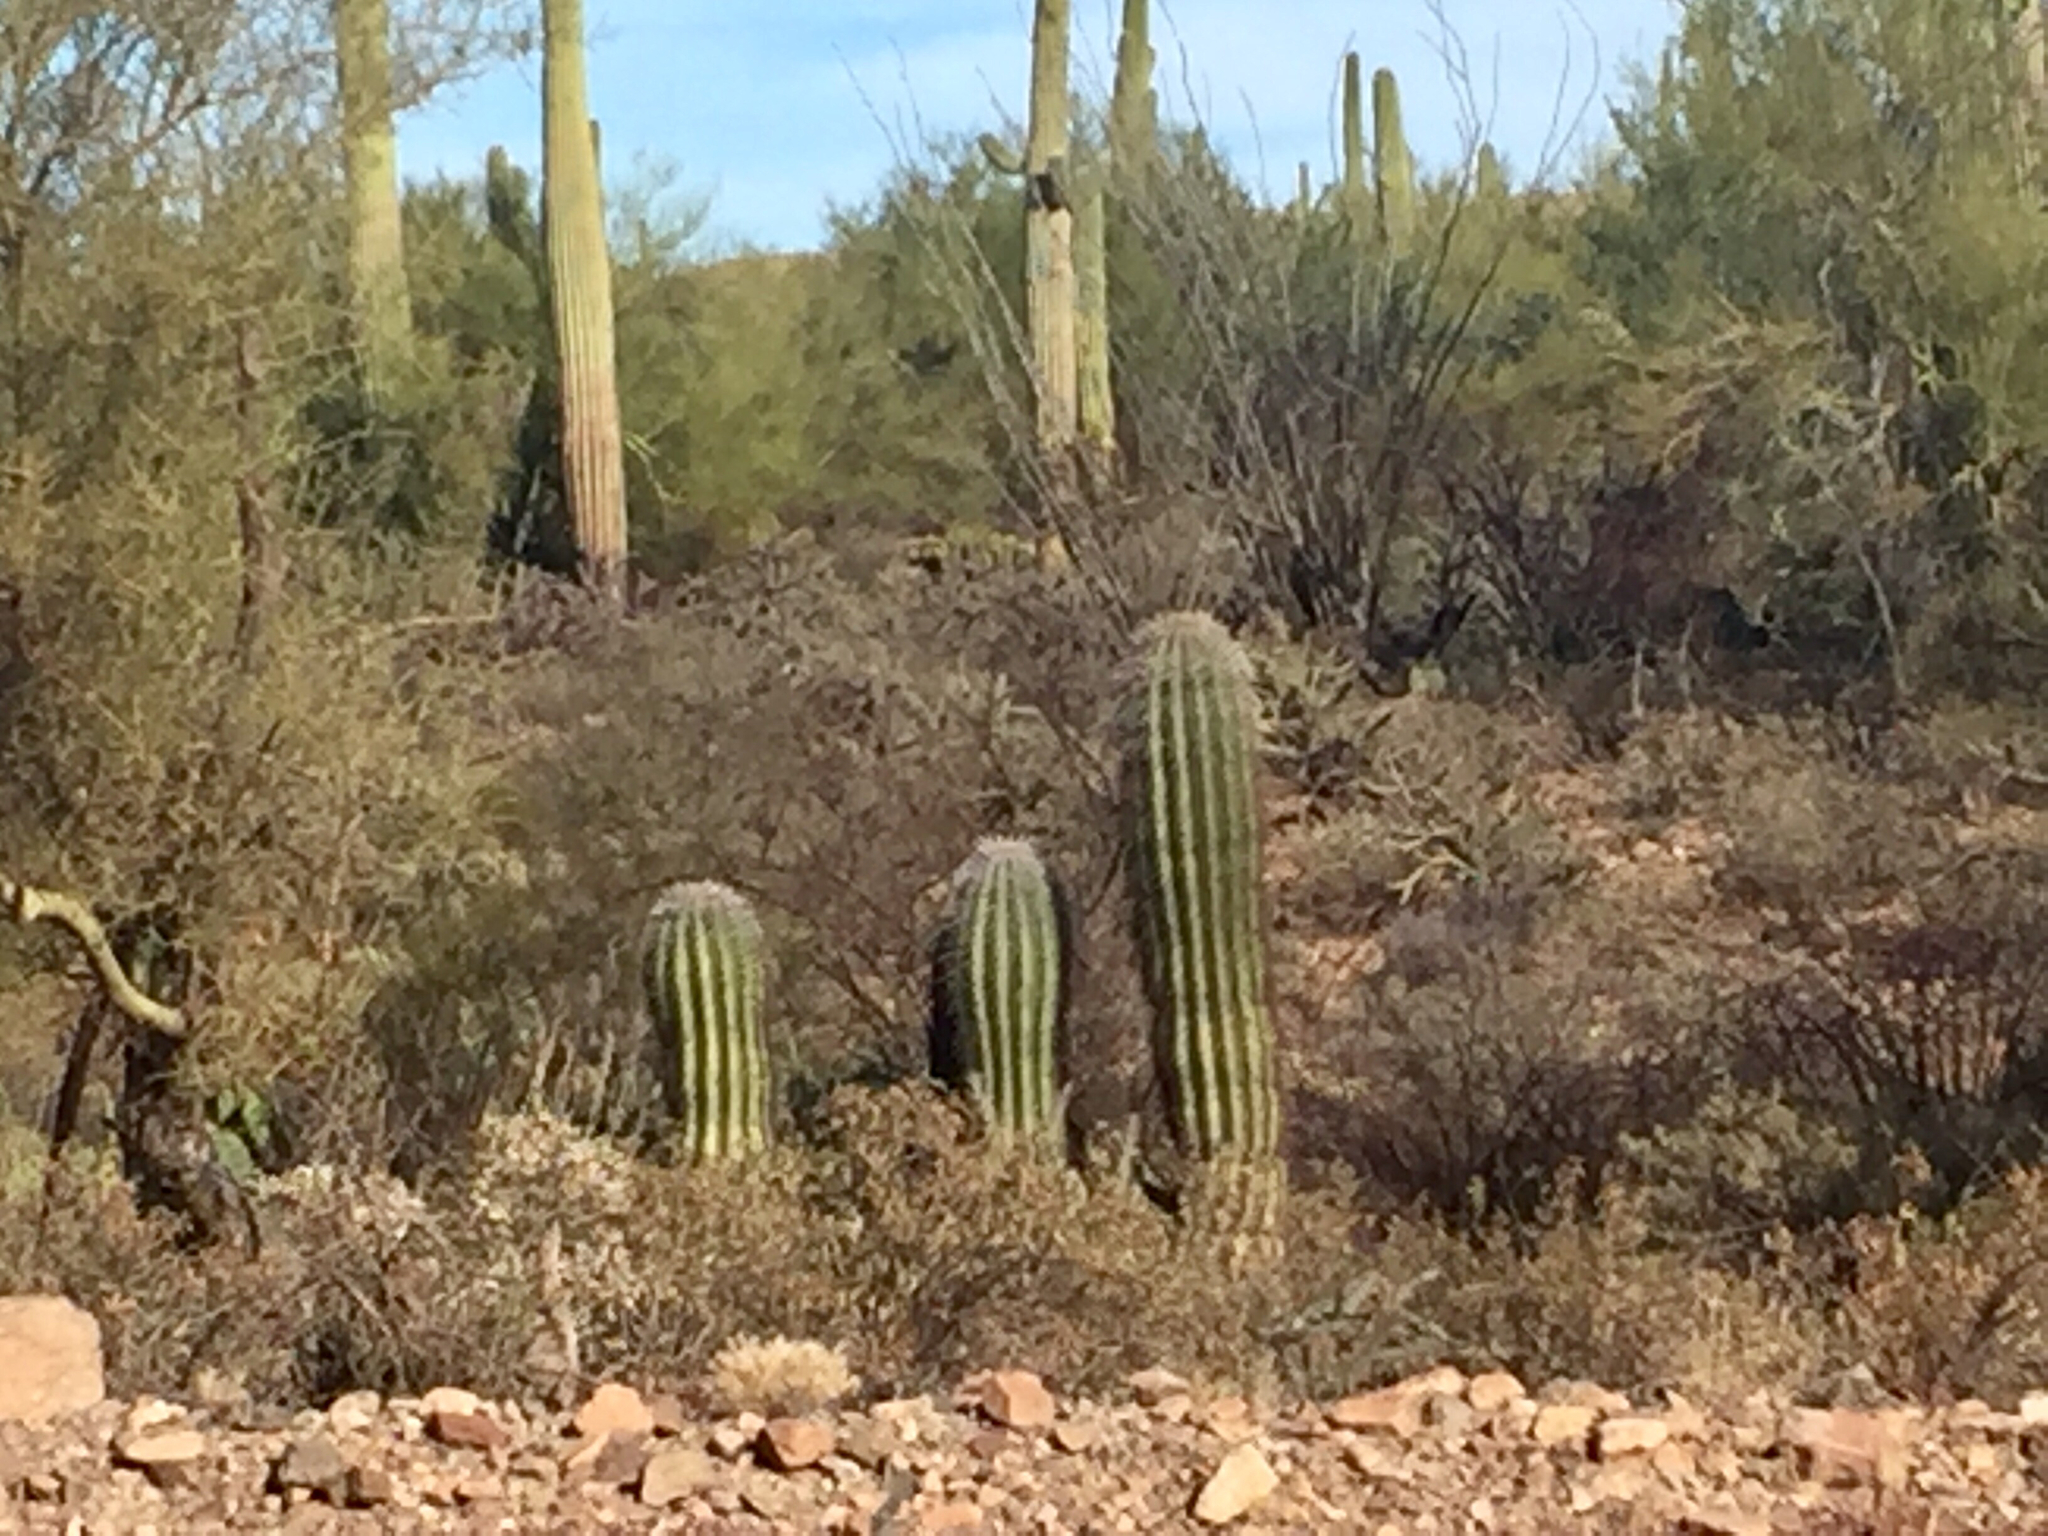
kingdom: Plantae
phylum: Tracheophyta
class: Magnoliopsida
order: Caryophyllales
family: Cactaceae
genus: Carnegiea
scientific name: Carnegiea gigantea
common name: Saguaro
